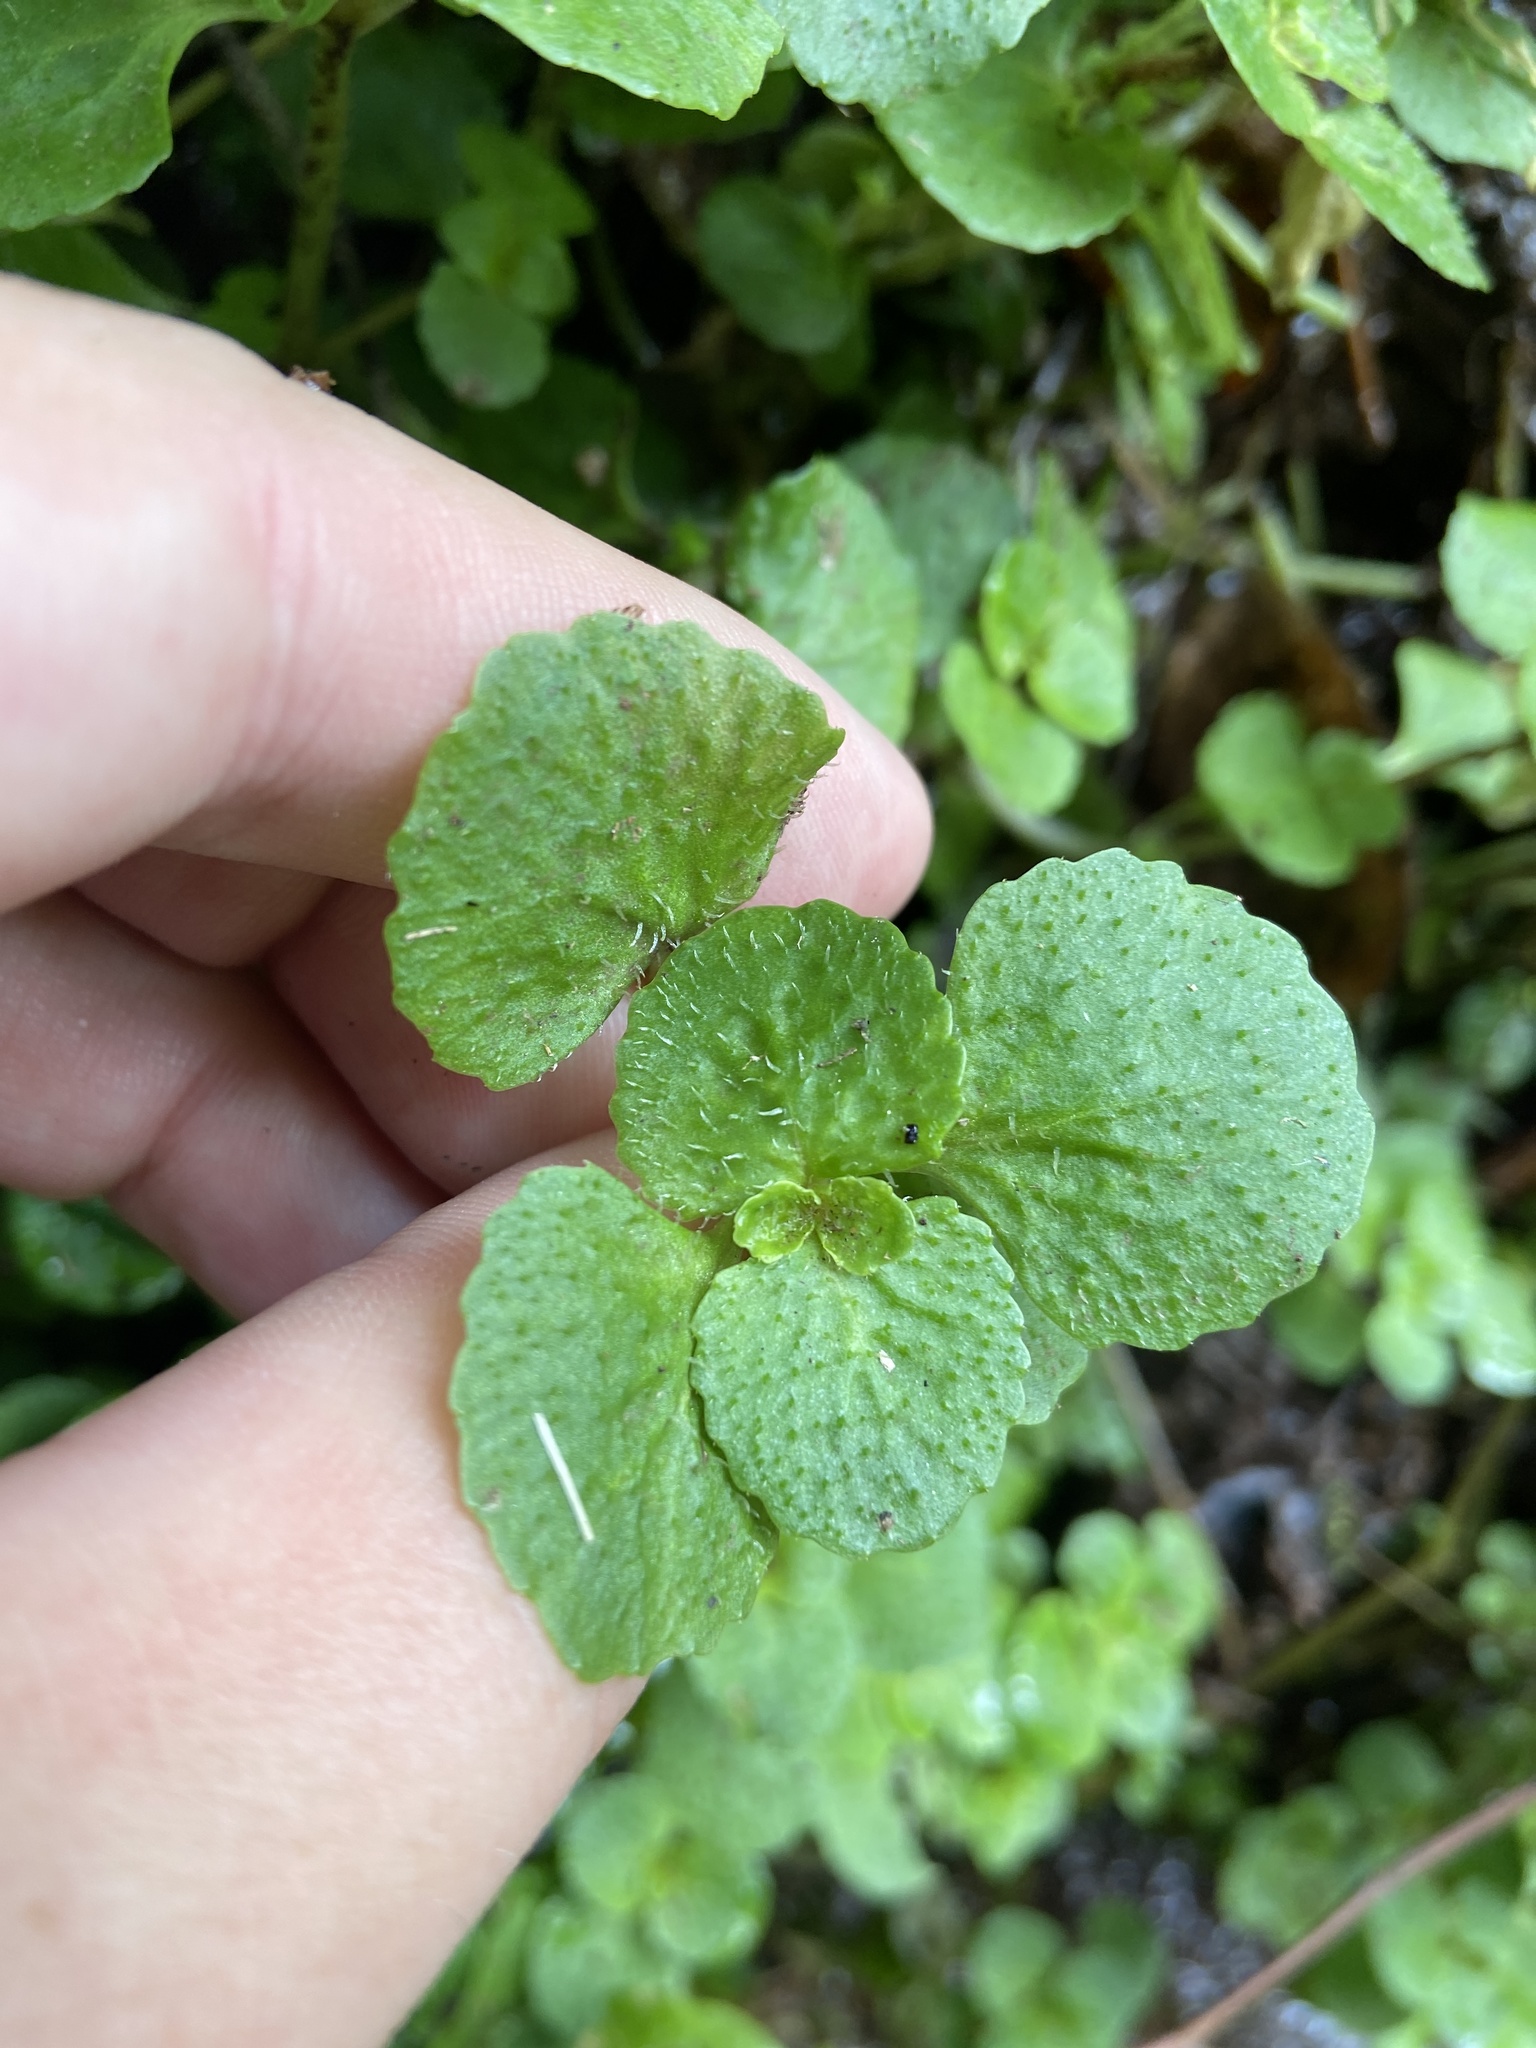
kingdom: Plantae
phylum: Tracheophyta
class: Magnoliopsida
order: Saxifragales
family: Saxifragaceae
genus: Chrysosplenium
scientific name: Chrysosplenium oppositifolium
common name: Opposite-leaved golden-saxifrage
